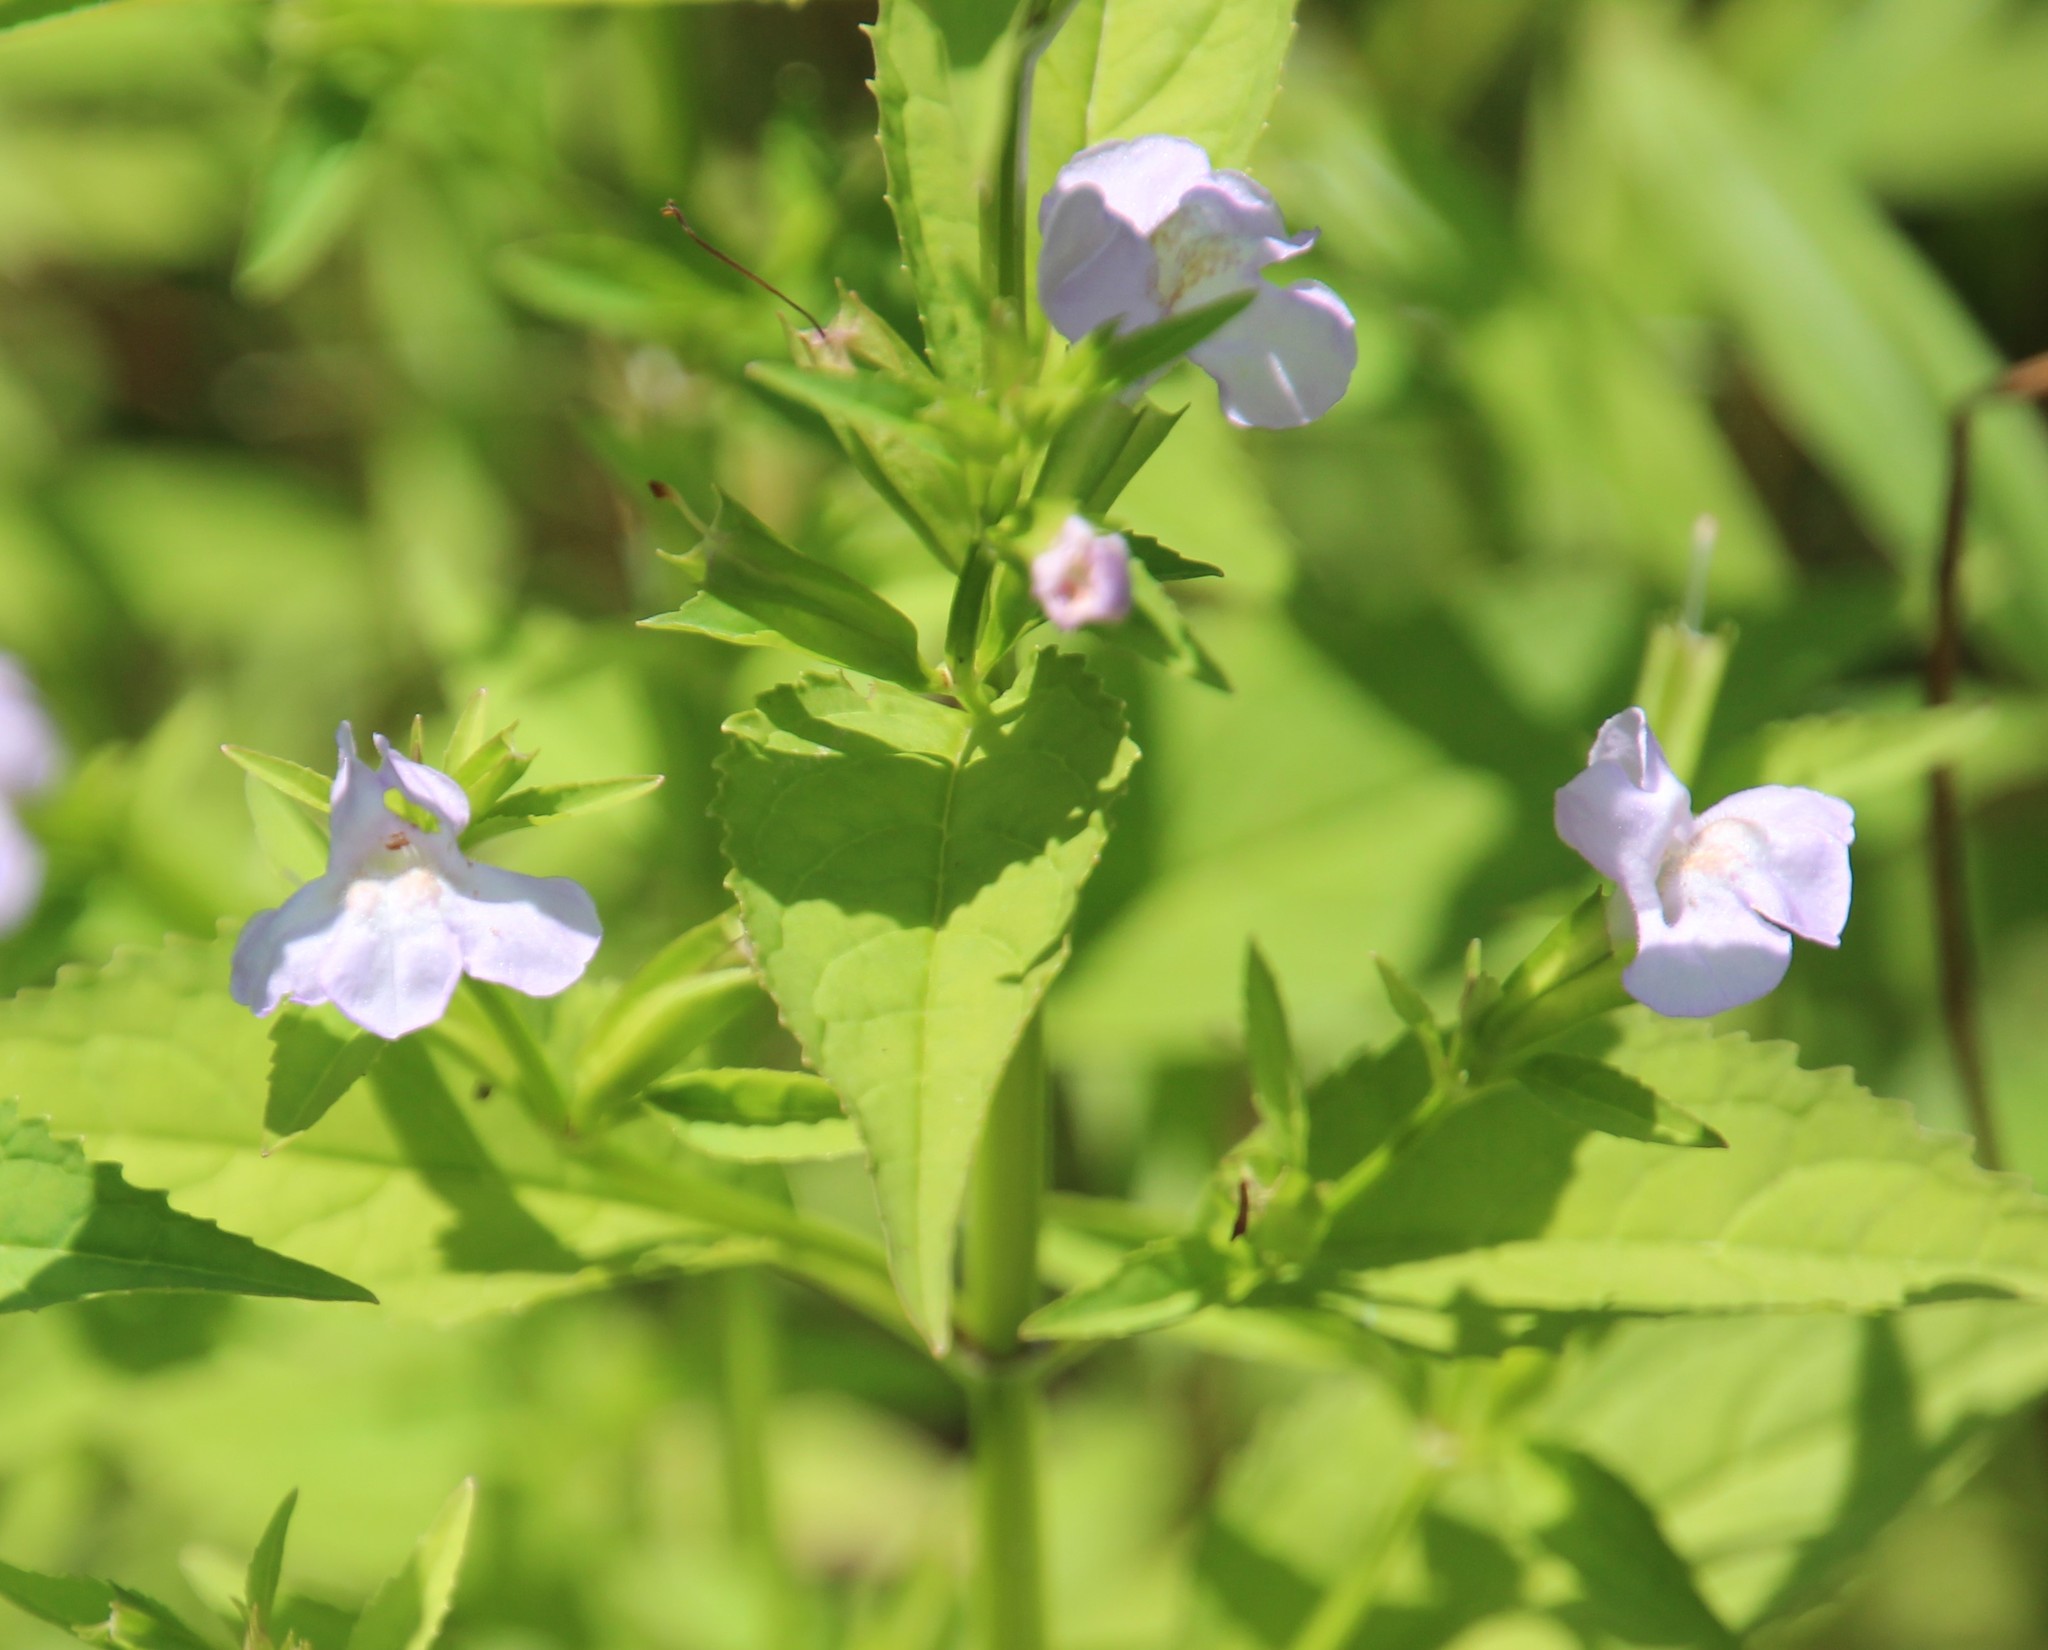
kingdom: Plantae
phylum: Tracheophyta
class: Magnoliopsida
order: Lamiales
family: Phrymaceae
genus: Mimulus
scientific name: Mimulus alatus
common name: Sharp-wing monkey-flower
